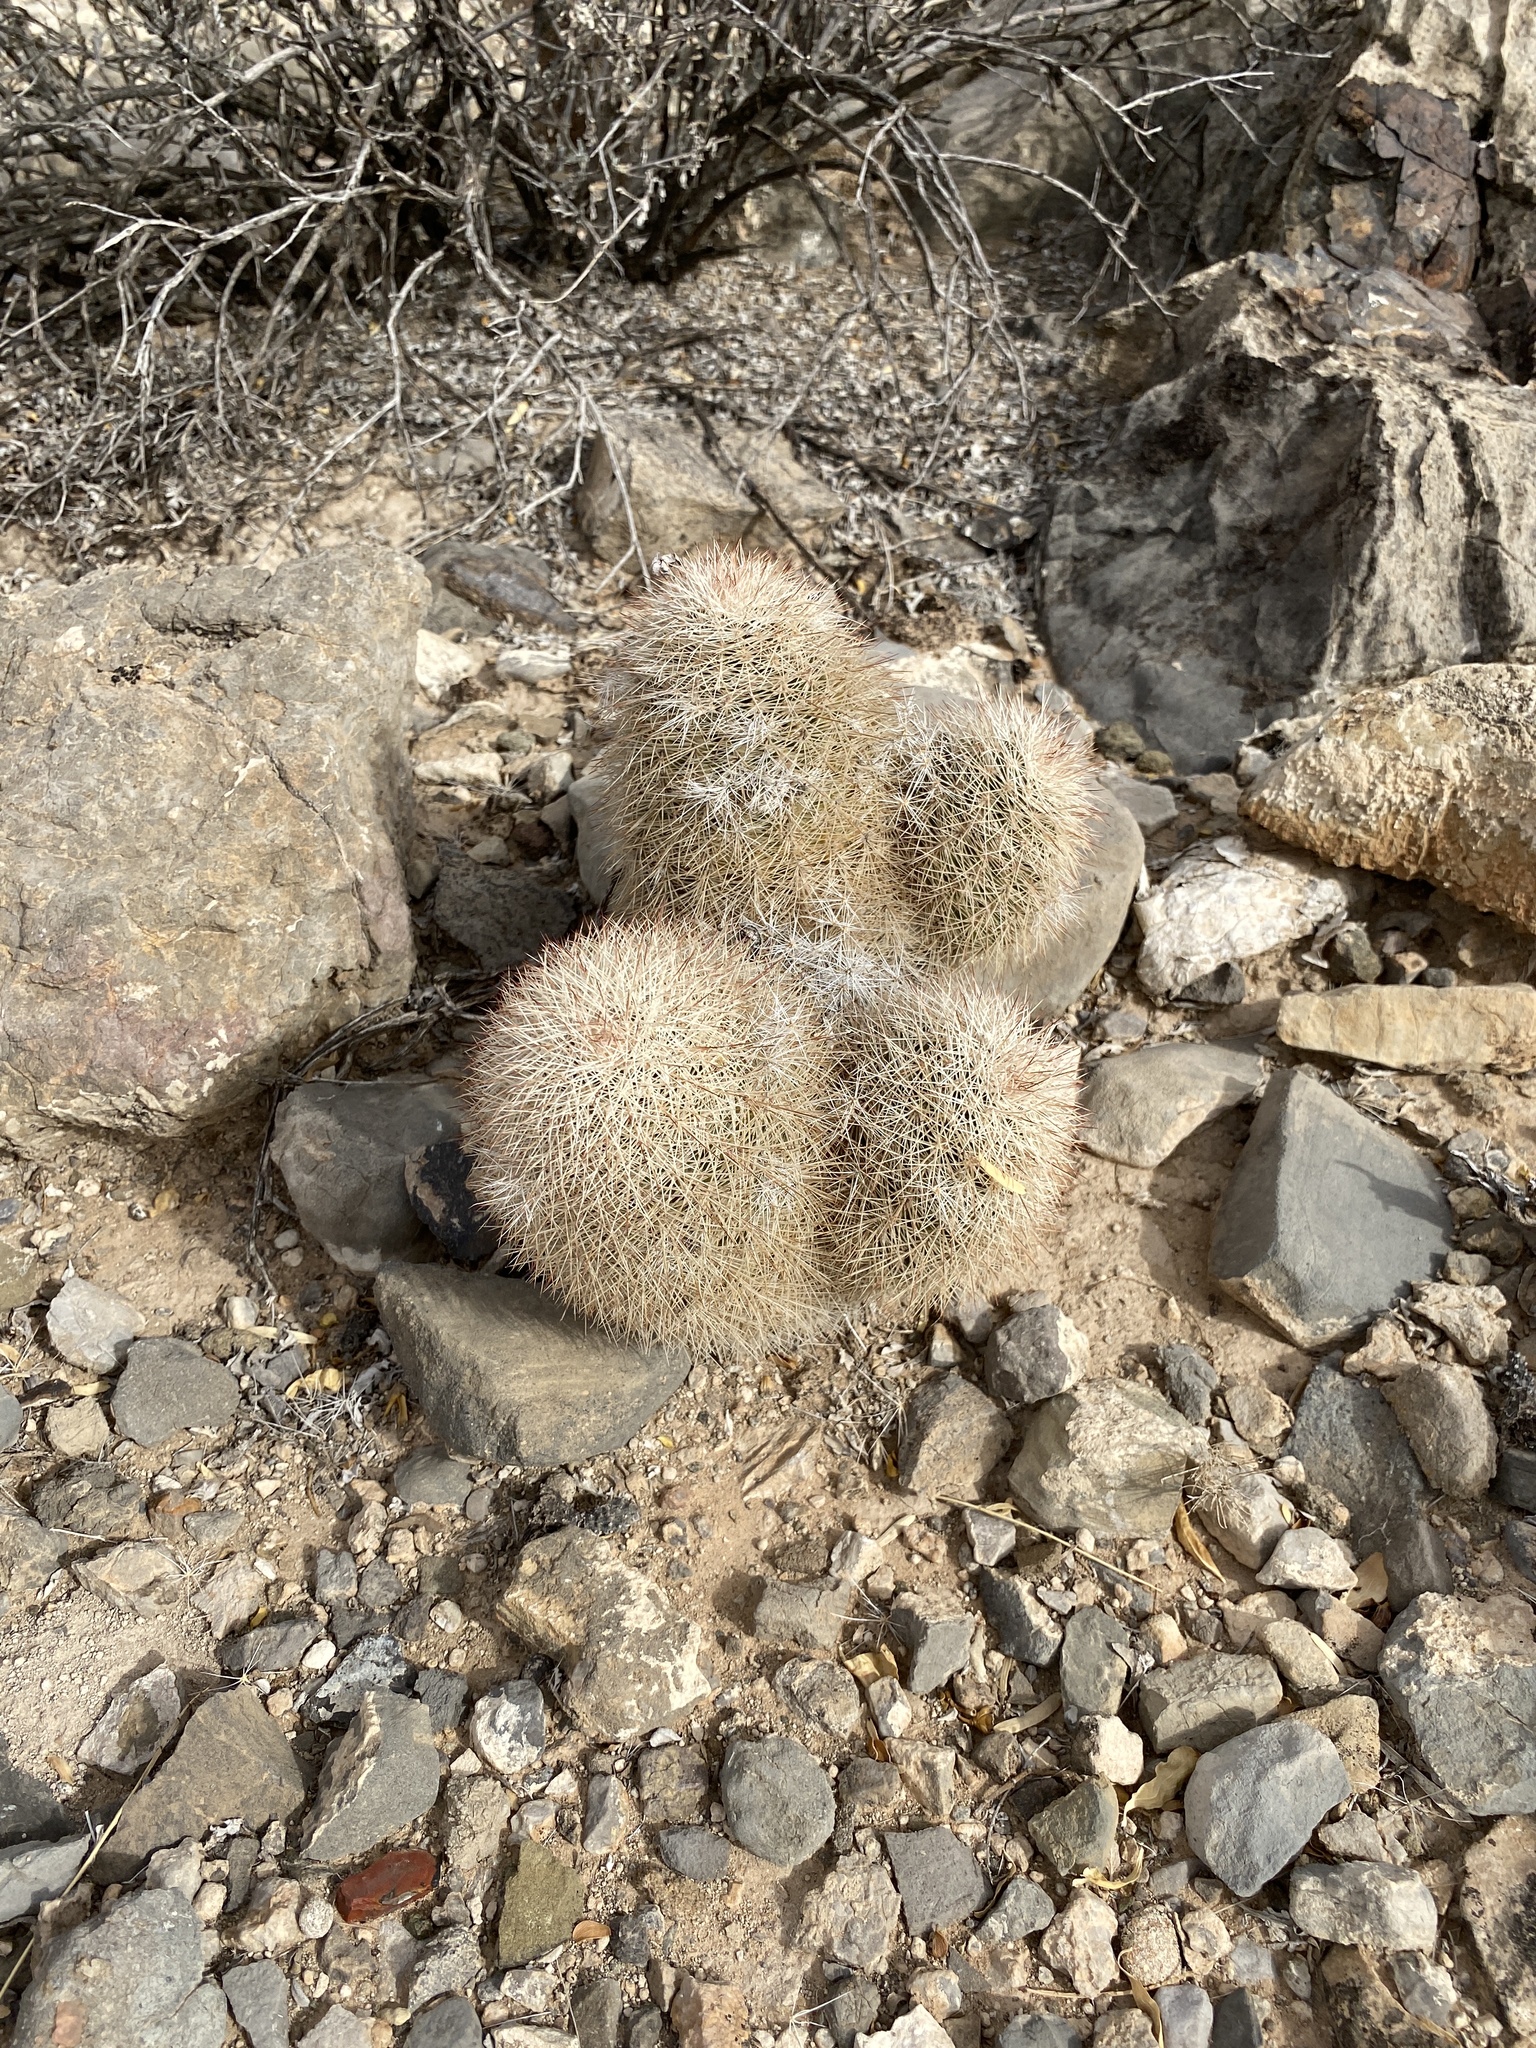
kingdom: Plantae
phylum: Tracheophyta
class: Magnoliopsida
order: Caryophyllales
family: Cactaceae
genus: Echinocereus
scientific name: Echinocereus dasyacanthus
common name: Spiny hedgehog cactus
